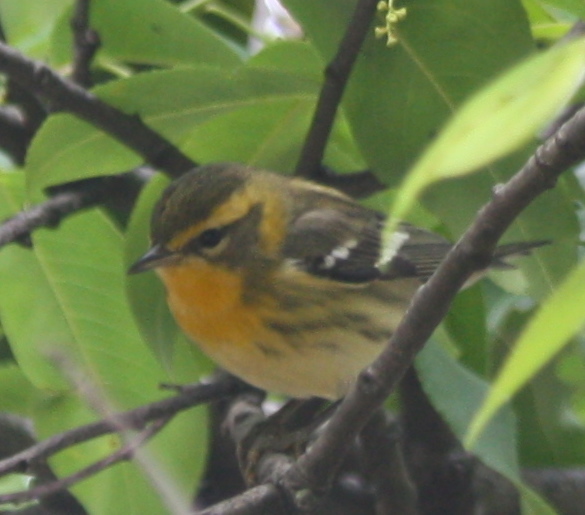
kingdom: Animalia
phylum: Chordata
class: Aves
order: Passeriformes
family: Parulidae
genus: Setophaga
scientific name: Setophaga fusca
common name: Blackburnian warbler
